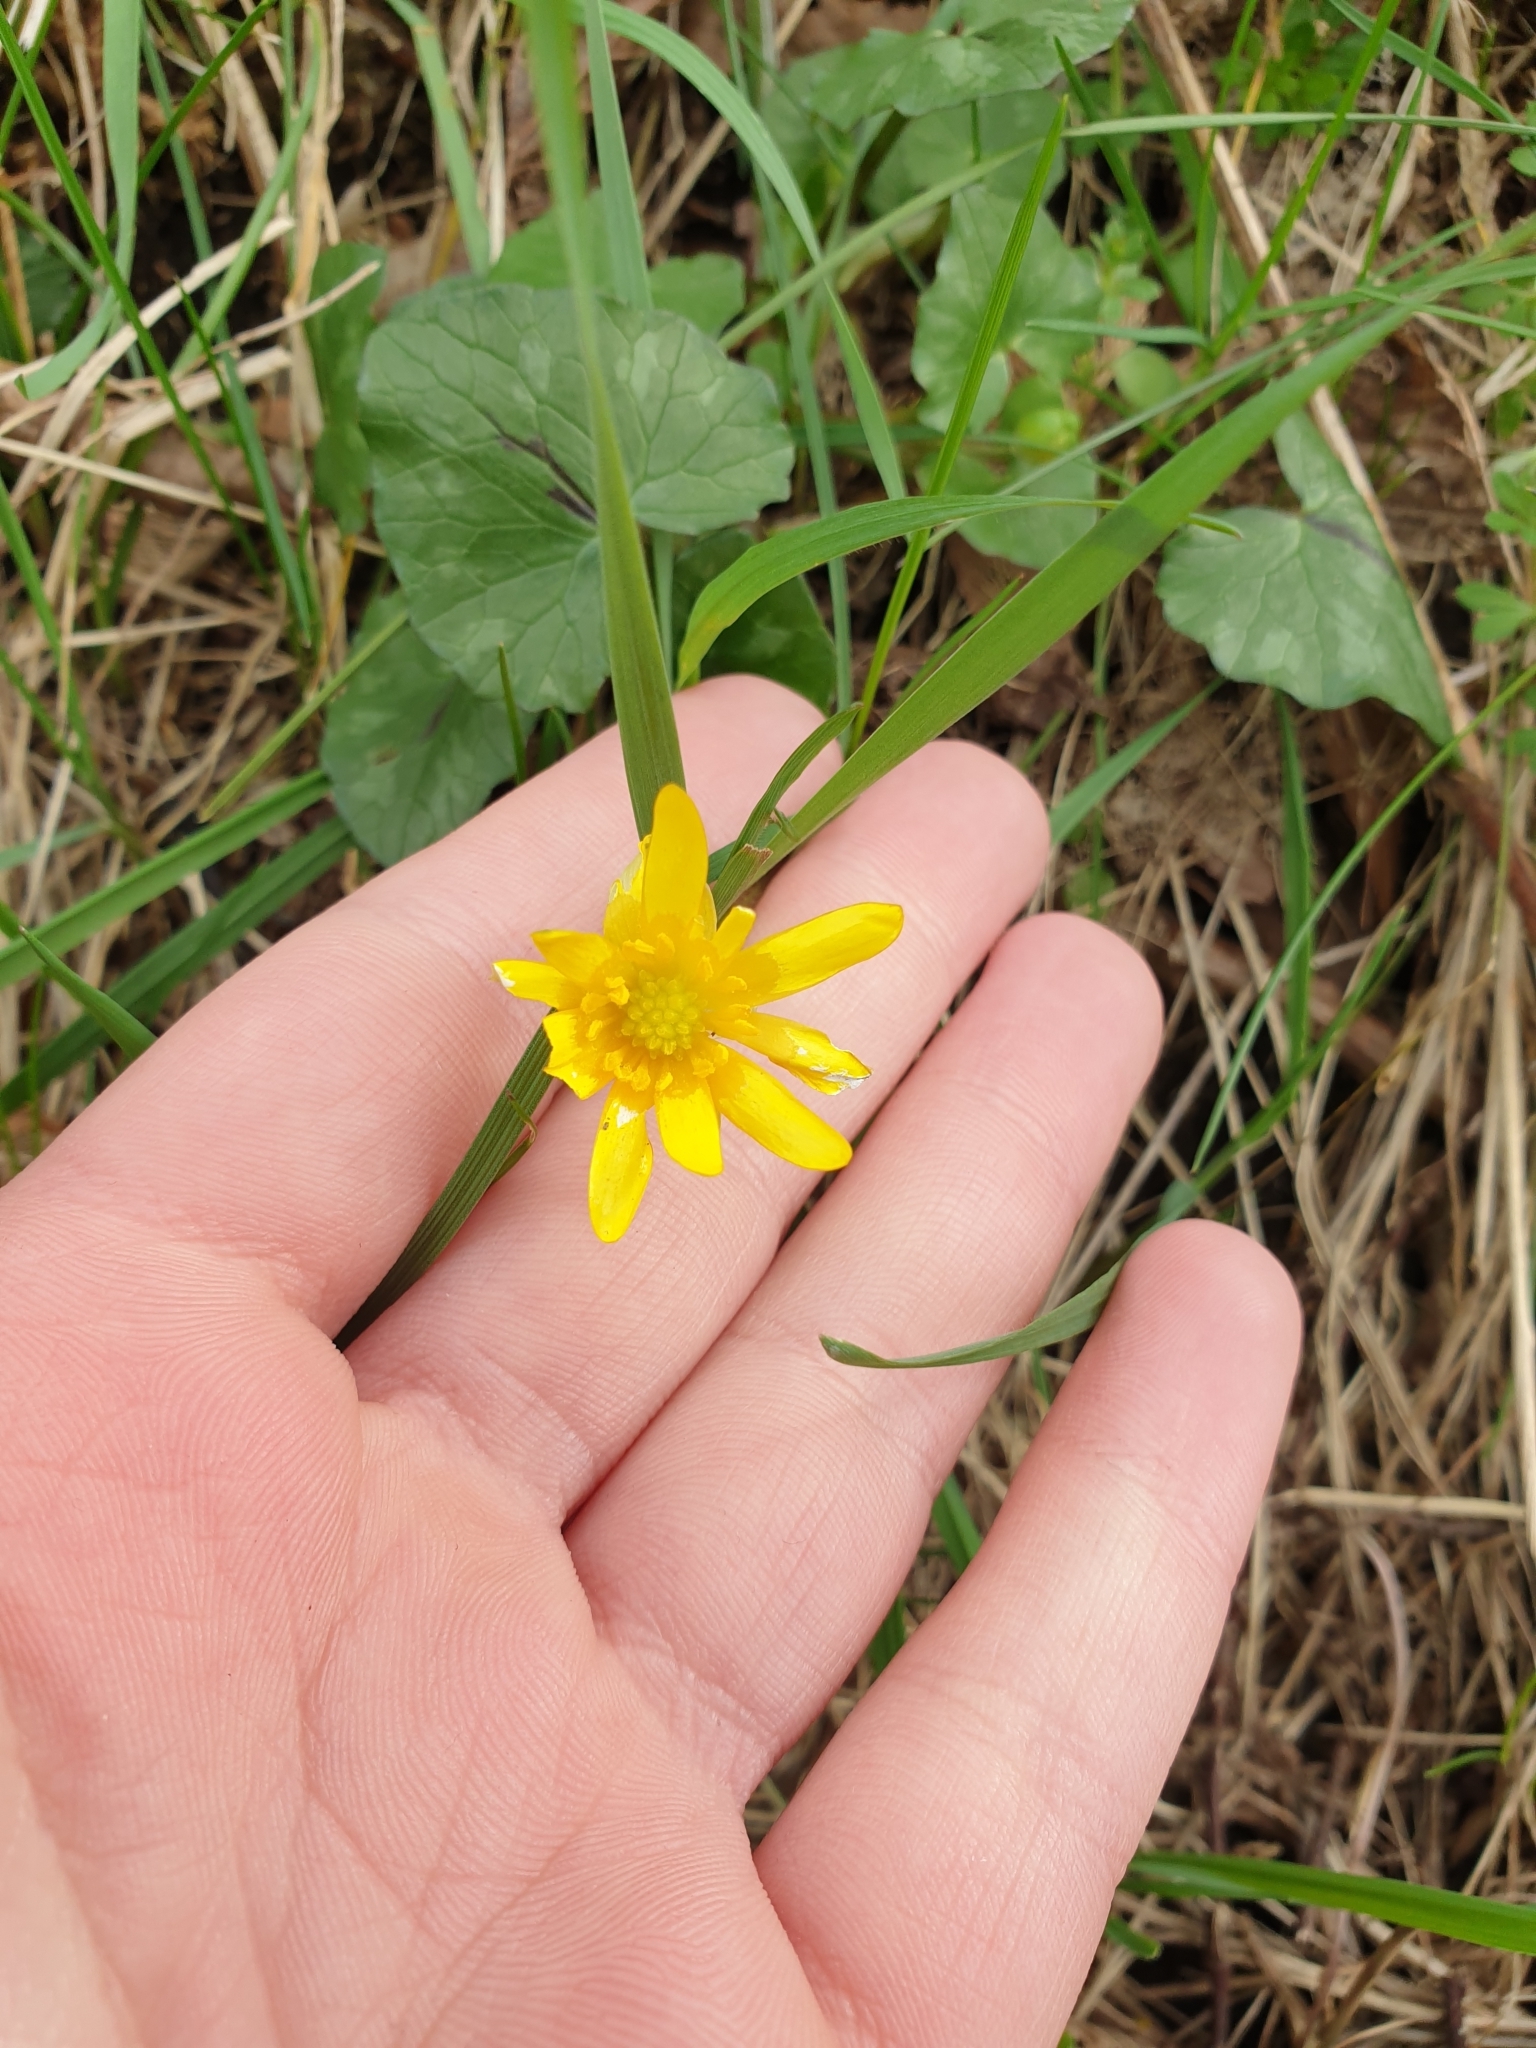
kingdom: Plantae
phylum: Tracheophyta
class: Magnoliopsida
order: Ranunculales
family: Ranunculaceae
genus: Ficaria
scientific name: Ficaria verna
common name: Lesser celandine
